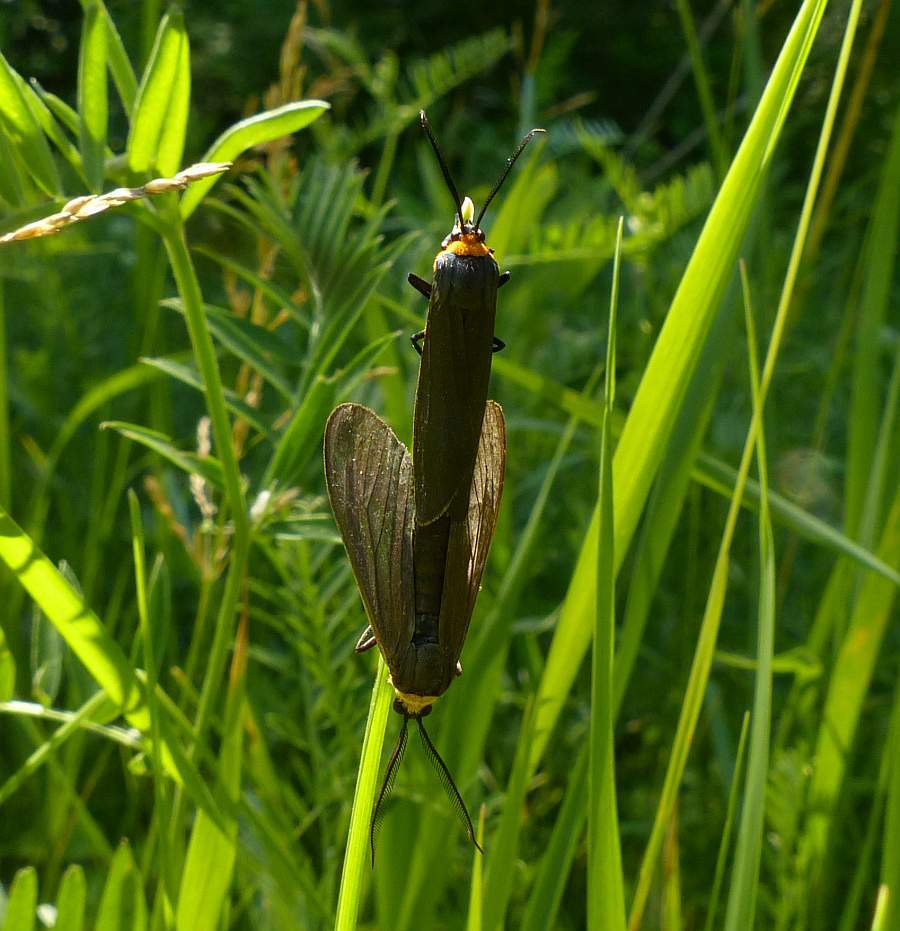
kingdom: Animalia
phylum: Arthropoda
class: Insecta
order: Lepidoptera
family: Erebidae
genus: Cisseps
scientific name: Cisseps fulvicollis
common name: Yellow-collared scape moth
